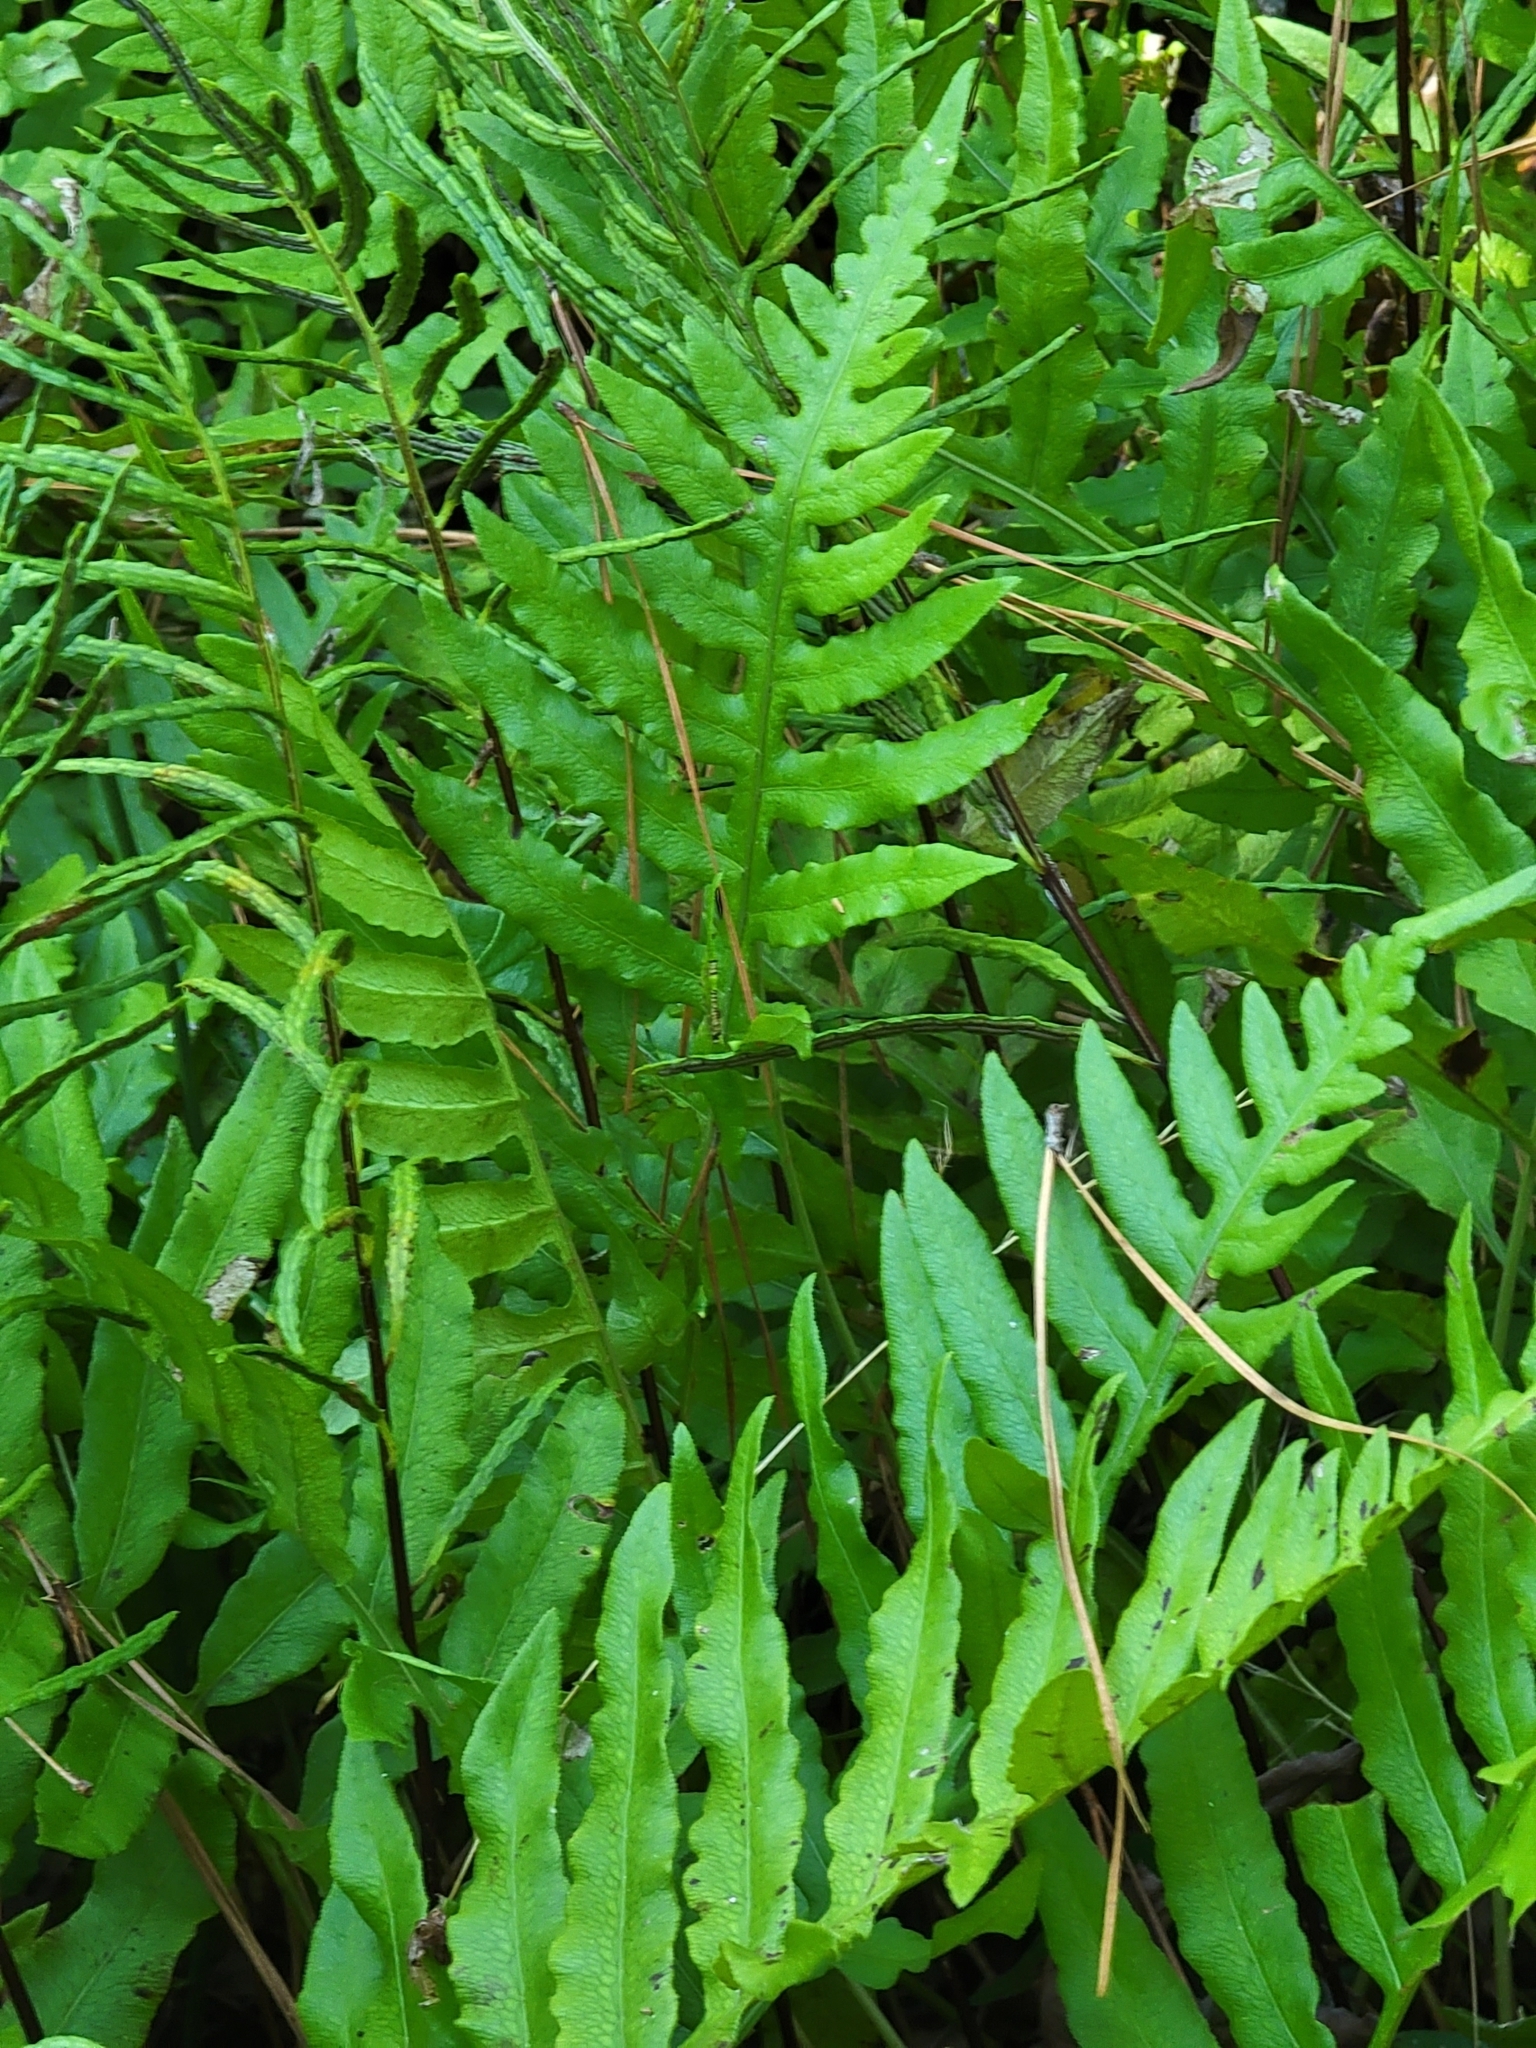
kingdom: Plantae
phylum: Tracheophyta
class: Polypodiopsida
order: Polypodiales
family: Blechnaceae
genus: Lorinseria
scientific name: Lorinseria areolata
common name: Dwarf chain fern
